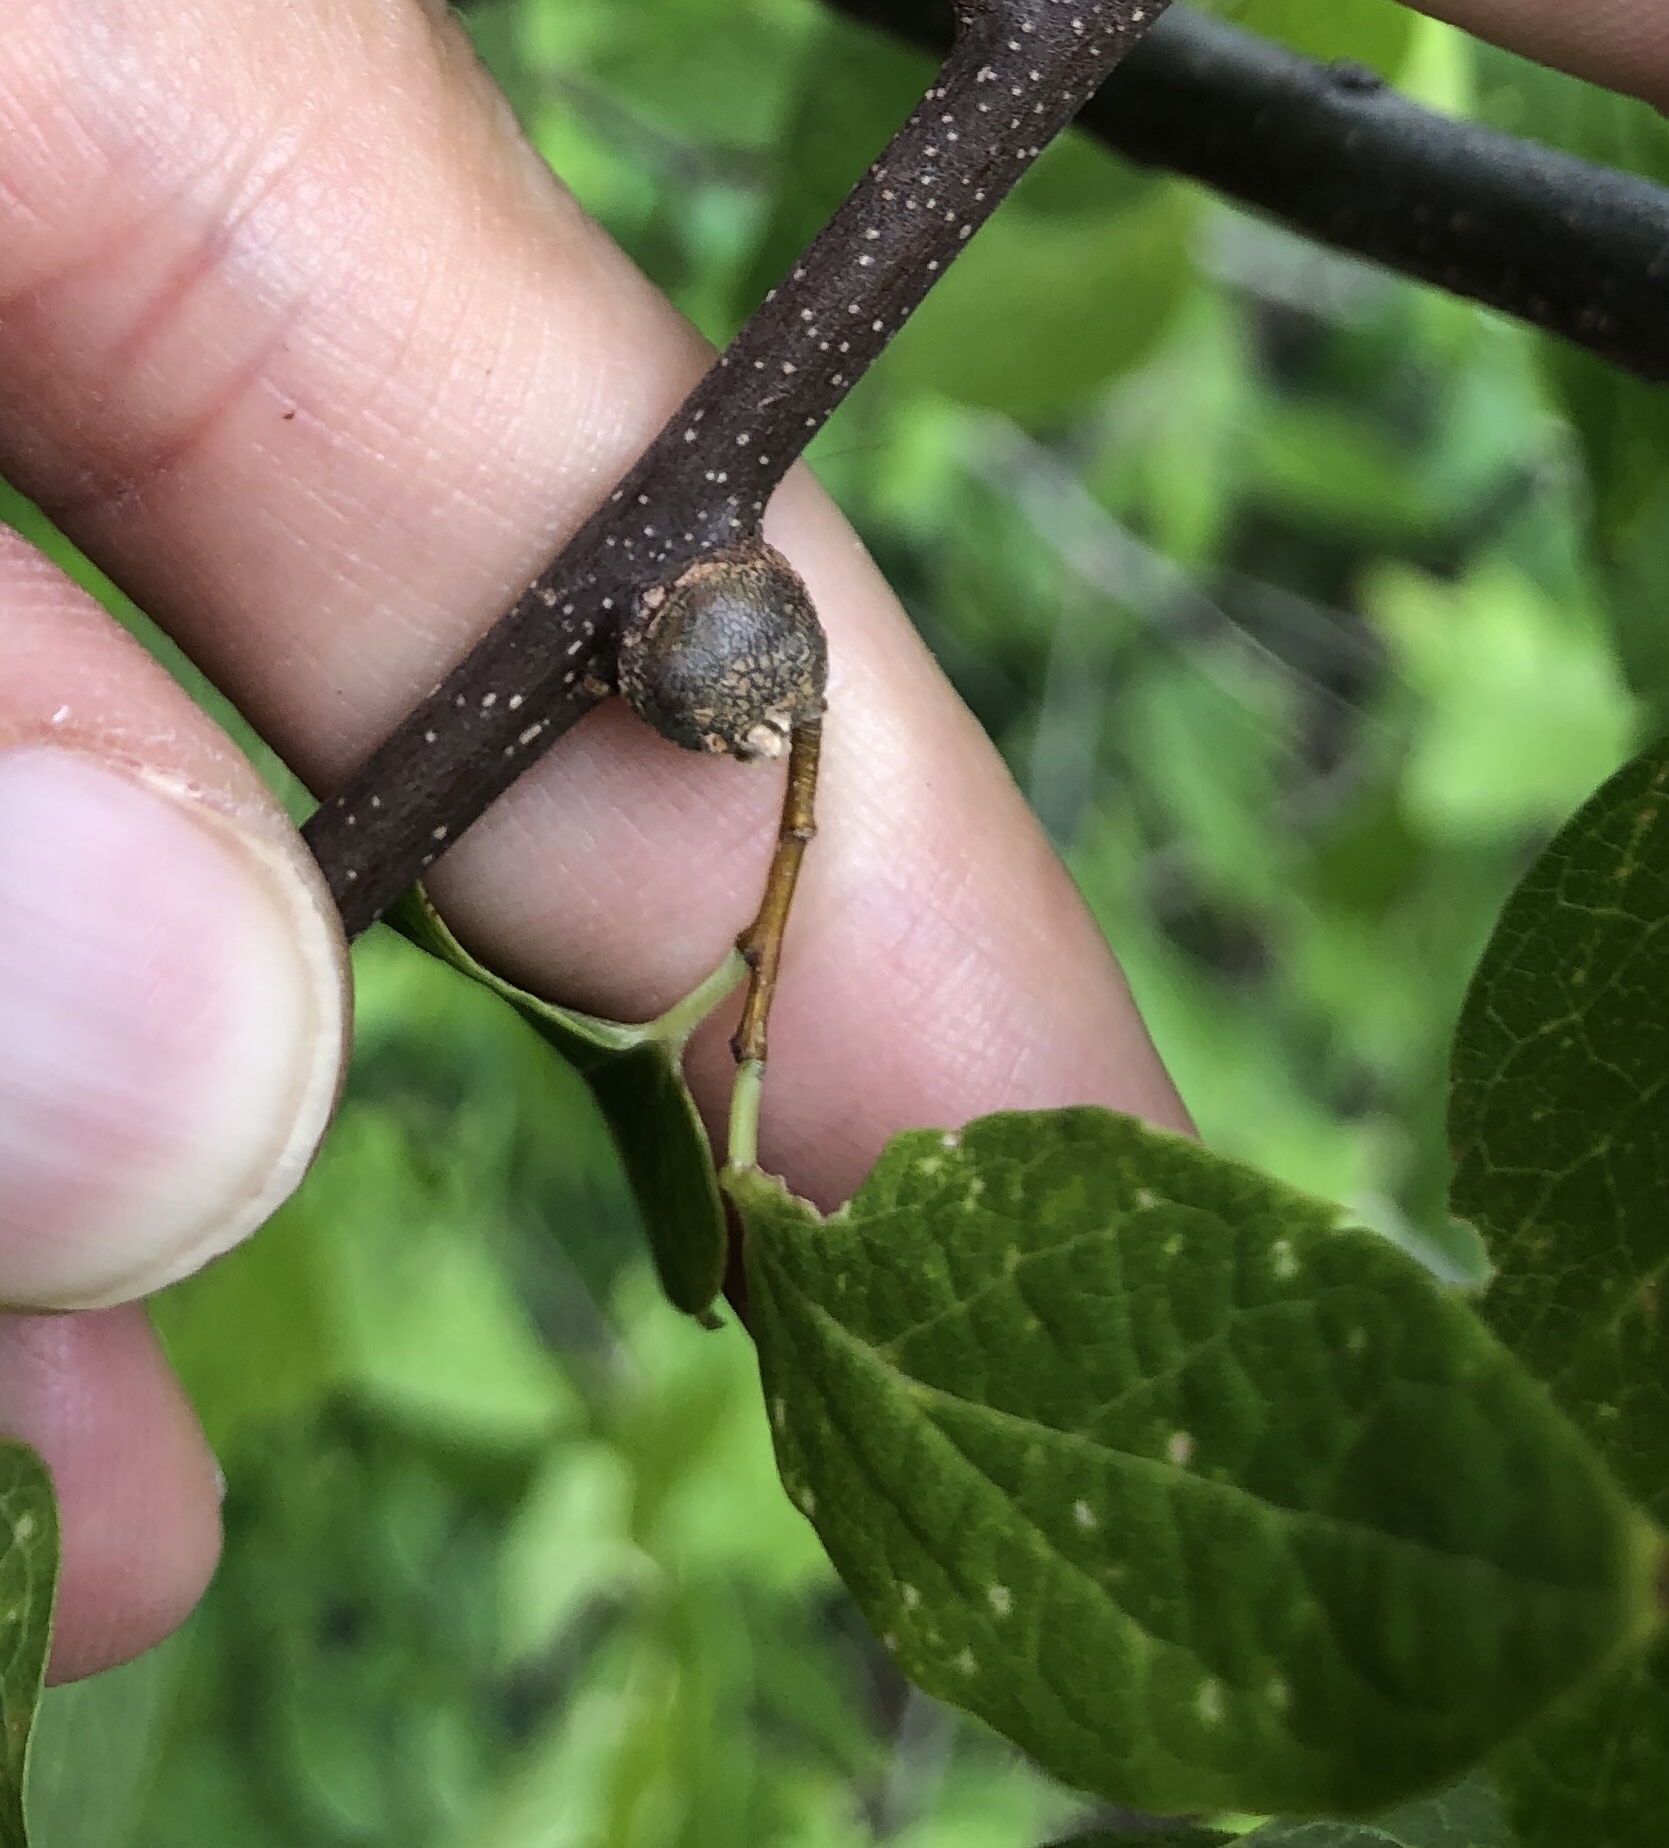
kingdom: Animalia
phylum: Arthropoda
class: Insecta
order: Hemiptera
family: Aphalaridae
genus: Pachypsylla
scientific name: Pachypsylla celtidisgemma
